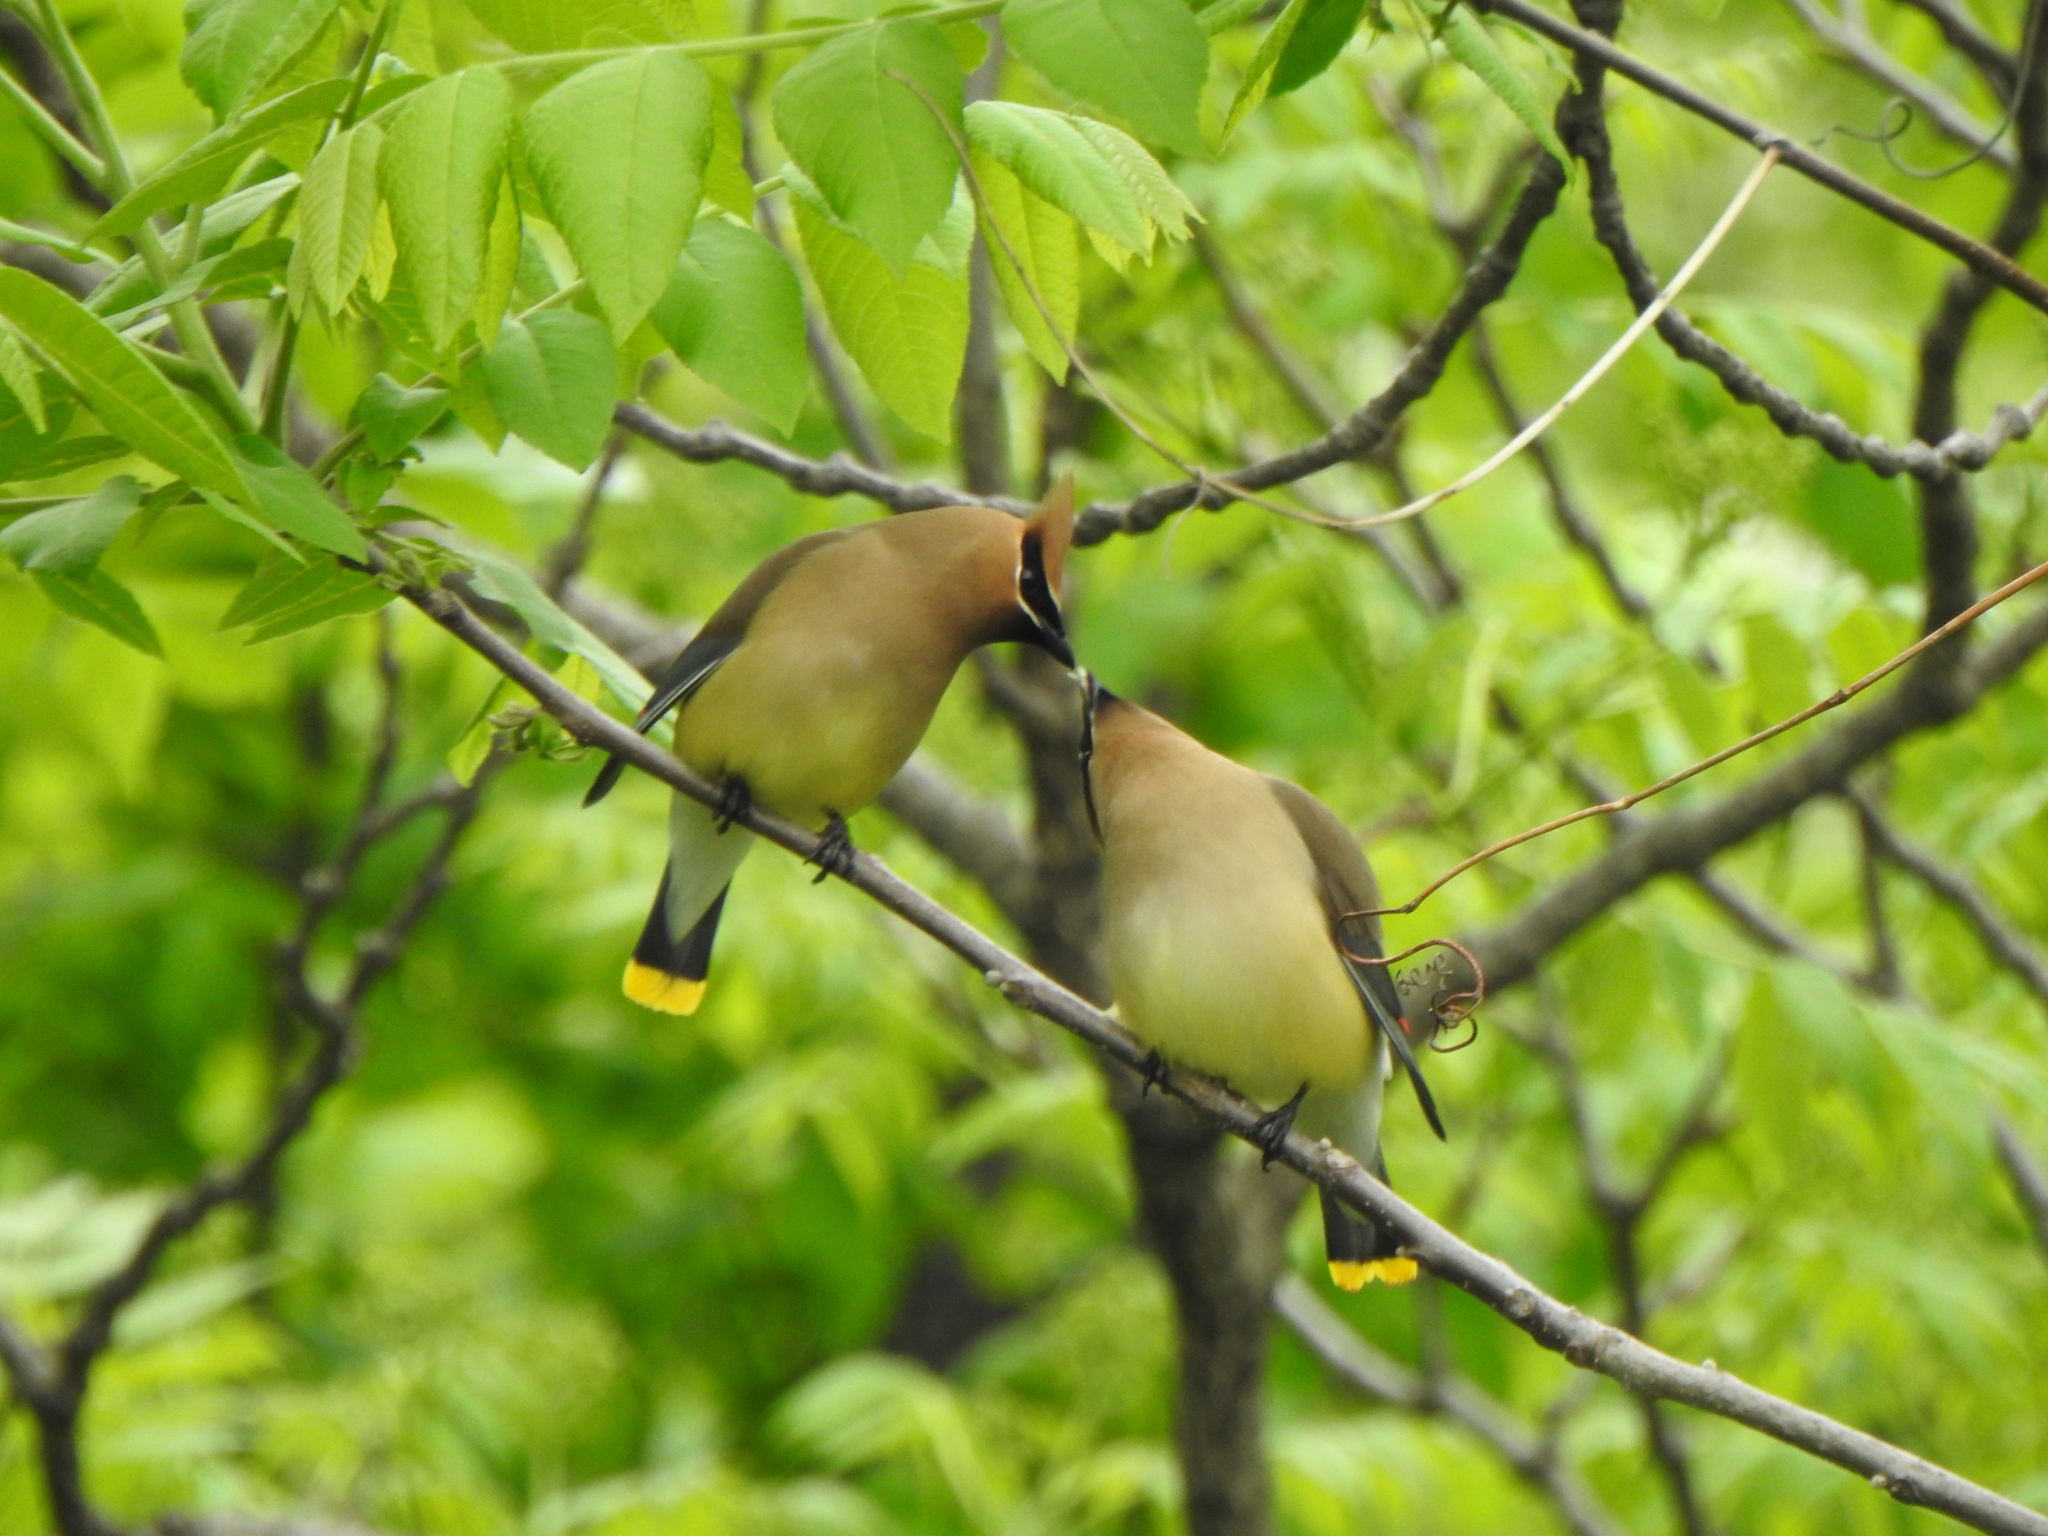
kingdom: Animalia
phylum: Chordata
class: Aves
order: Passeriformes
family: Bombycillidae
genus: Bombycilla
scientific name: Bombycilla cedrorum
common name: Cedar waxwing
